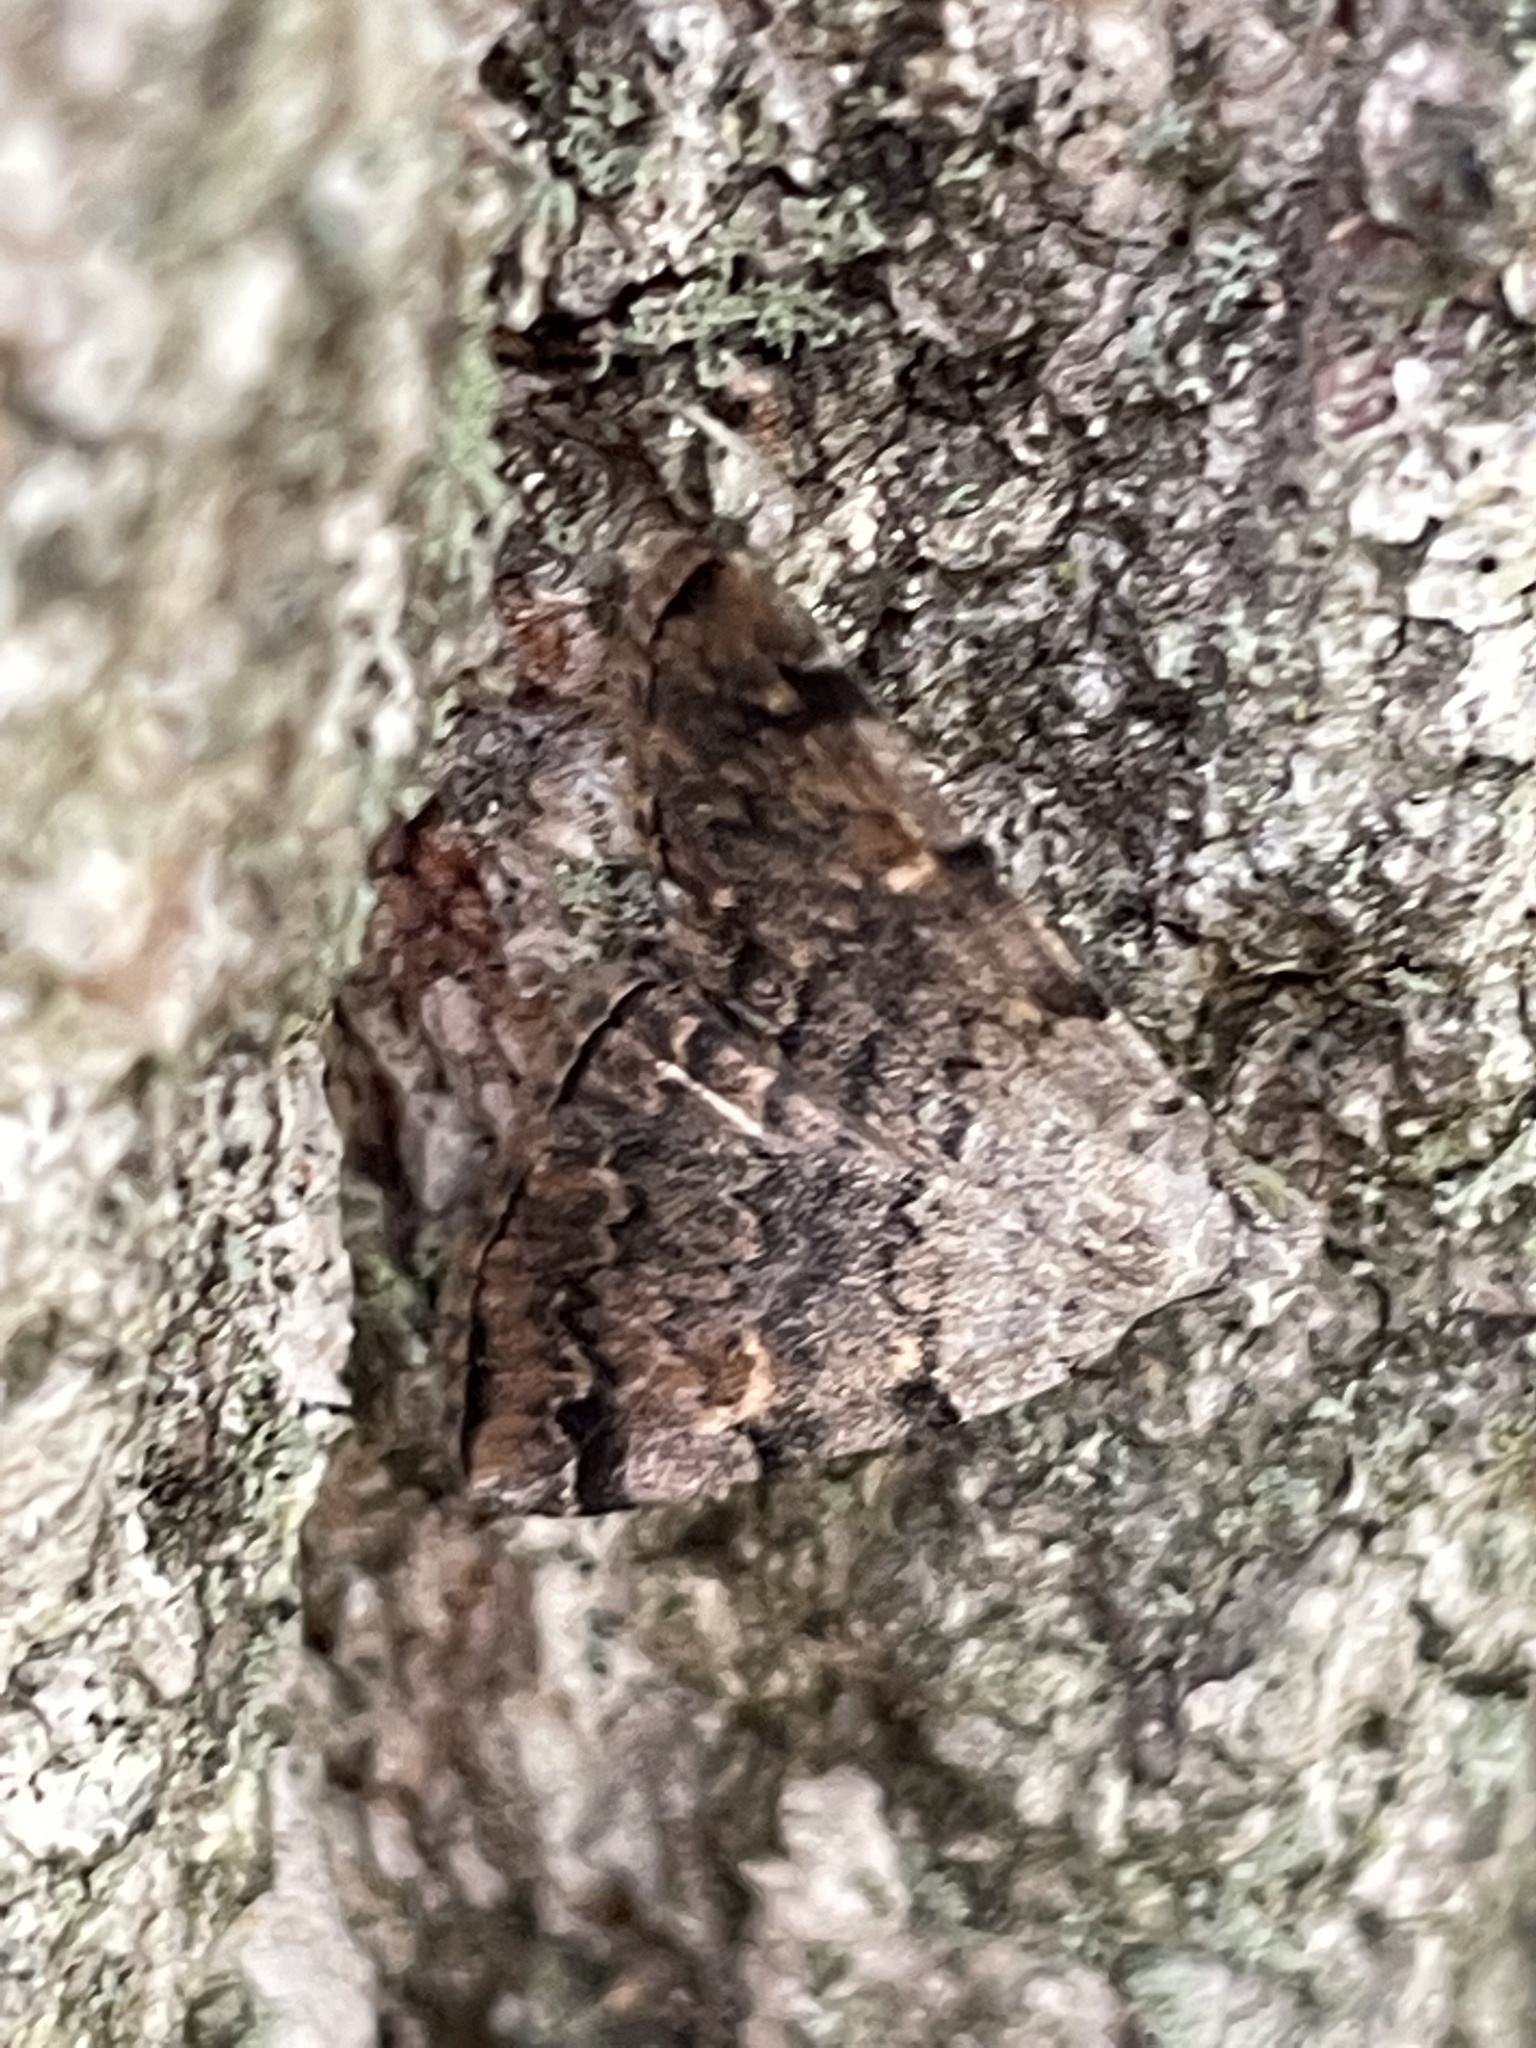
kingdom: Animalia
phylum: Arthropoda
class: Insecta
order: Lepidoptera
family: Erebidae
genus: Idia
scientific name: Idia americalis
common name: American idia moth
